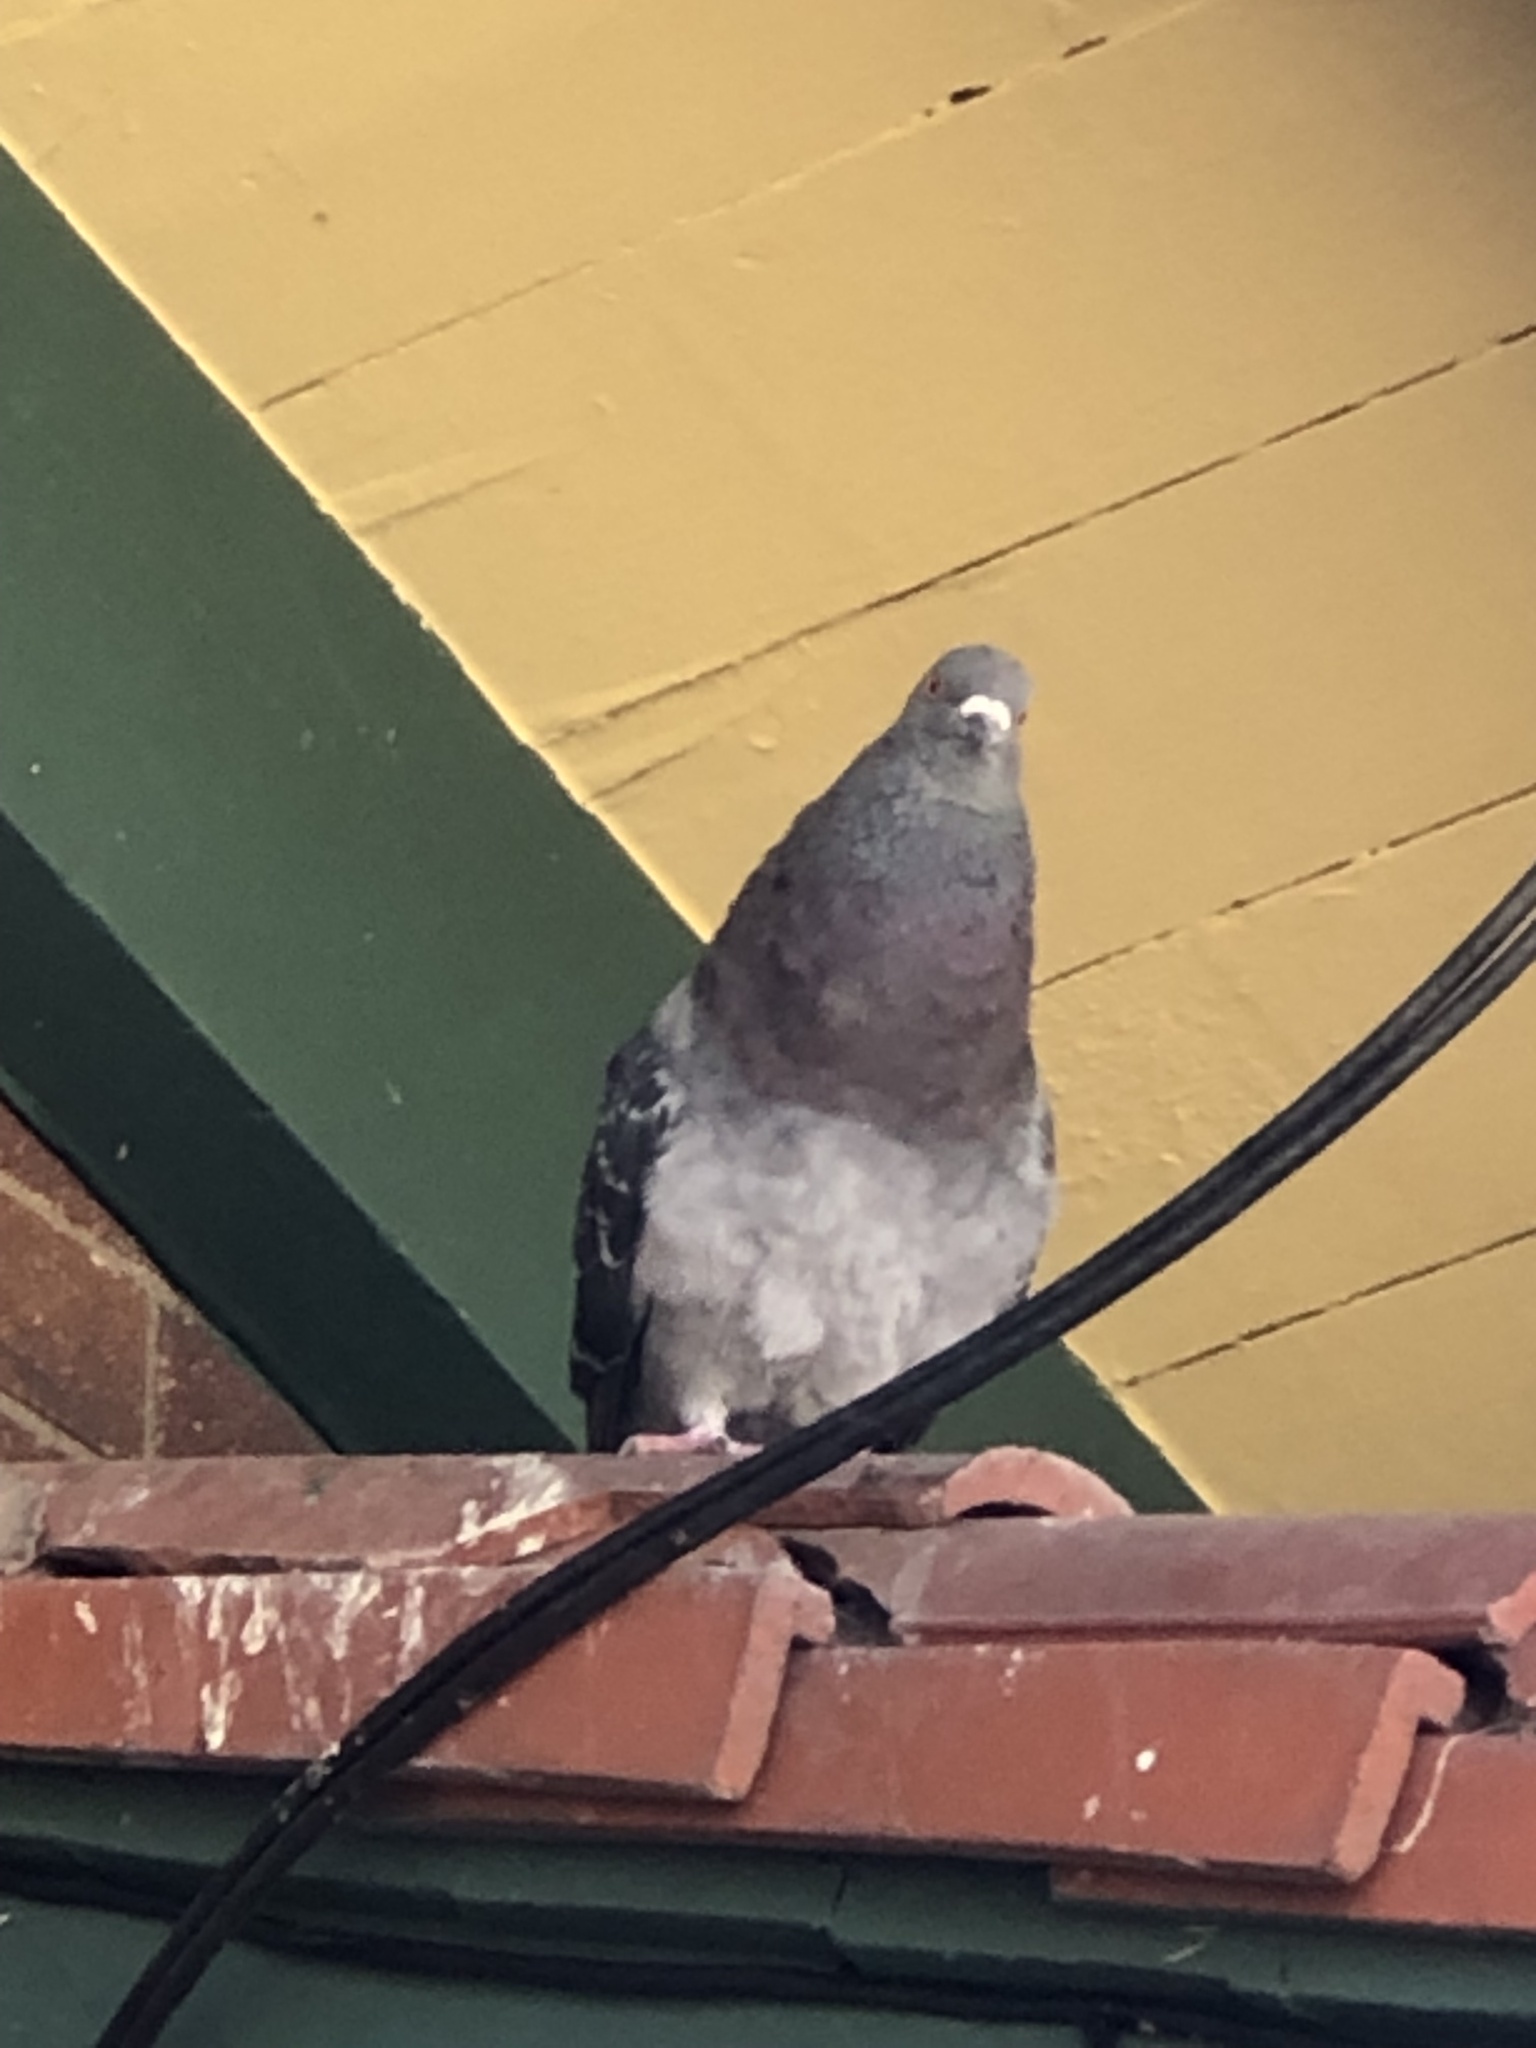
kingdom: Animalia
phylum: Chordata
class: Aves
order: Columbiformes
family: Columbidae
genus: Columba
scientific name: Columba livia
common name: Rock pigeon
